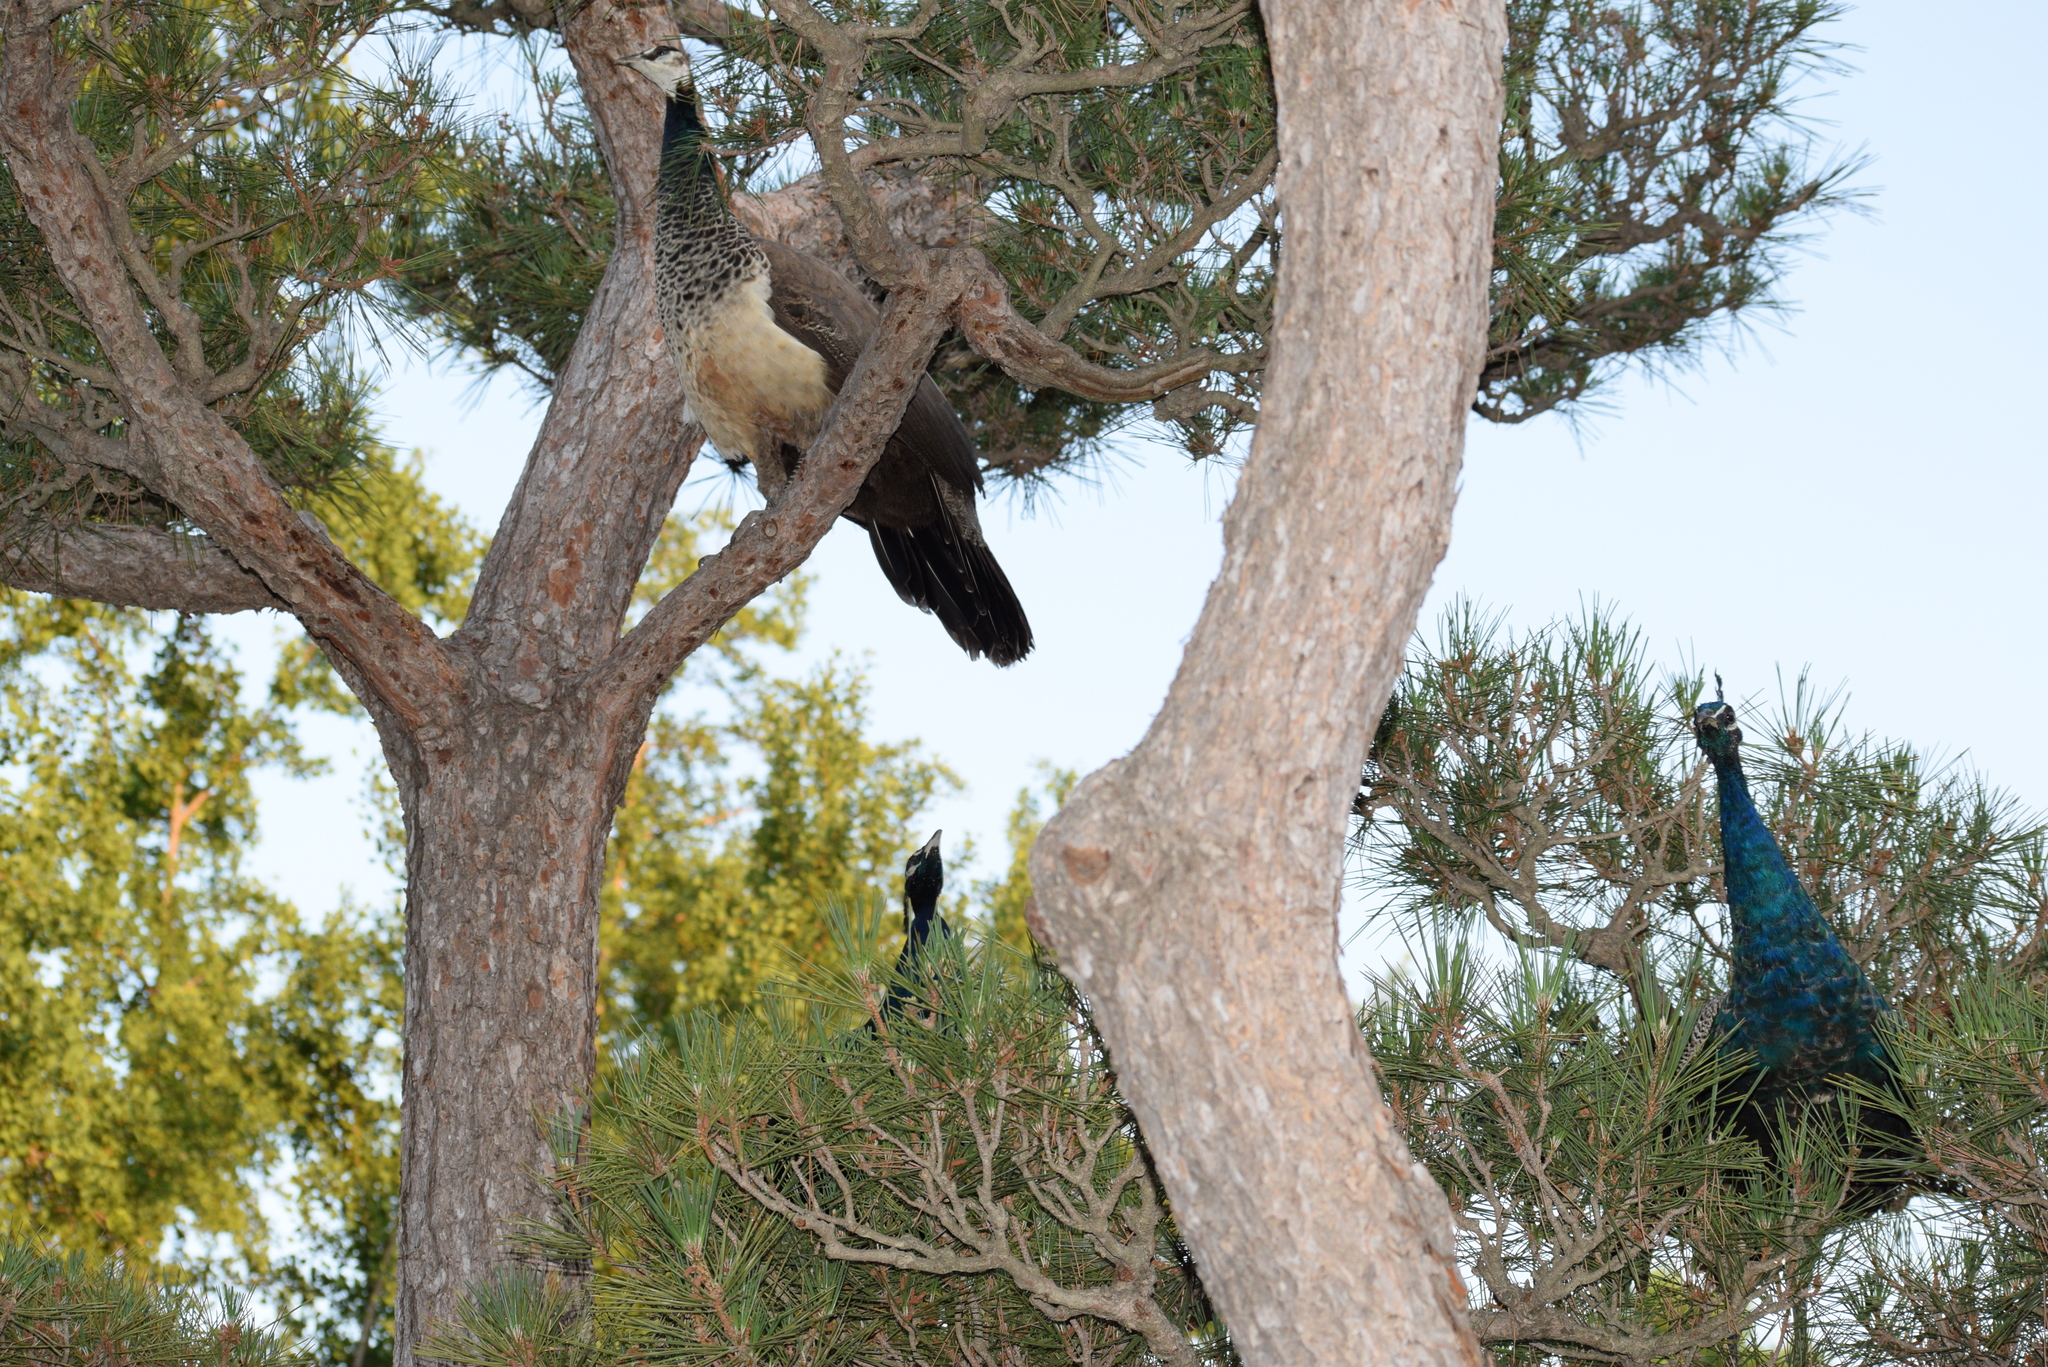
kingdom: Animalia
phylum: Chordata
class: Aves
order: Galliformes
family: Phasianidae
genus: Pavo
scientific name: Pavo cristatus
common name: Indian peafowl
